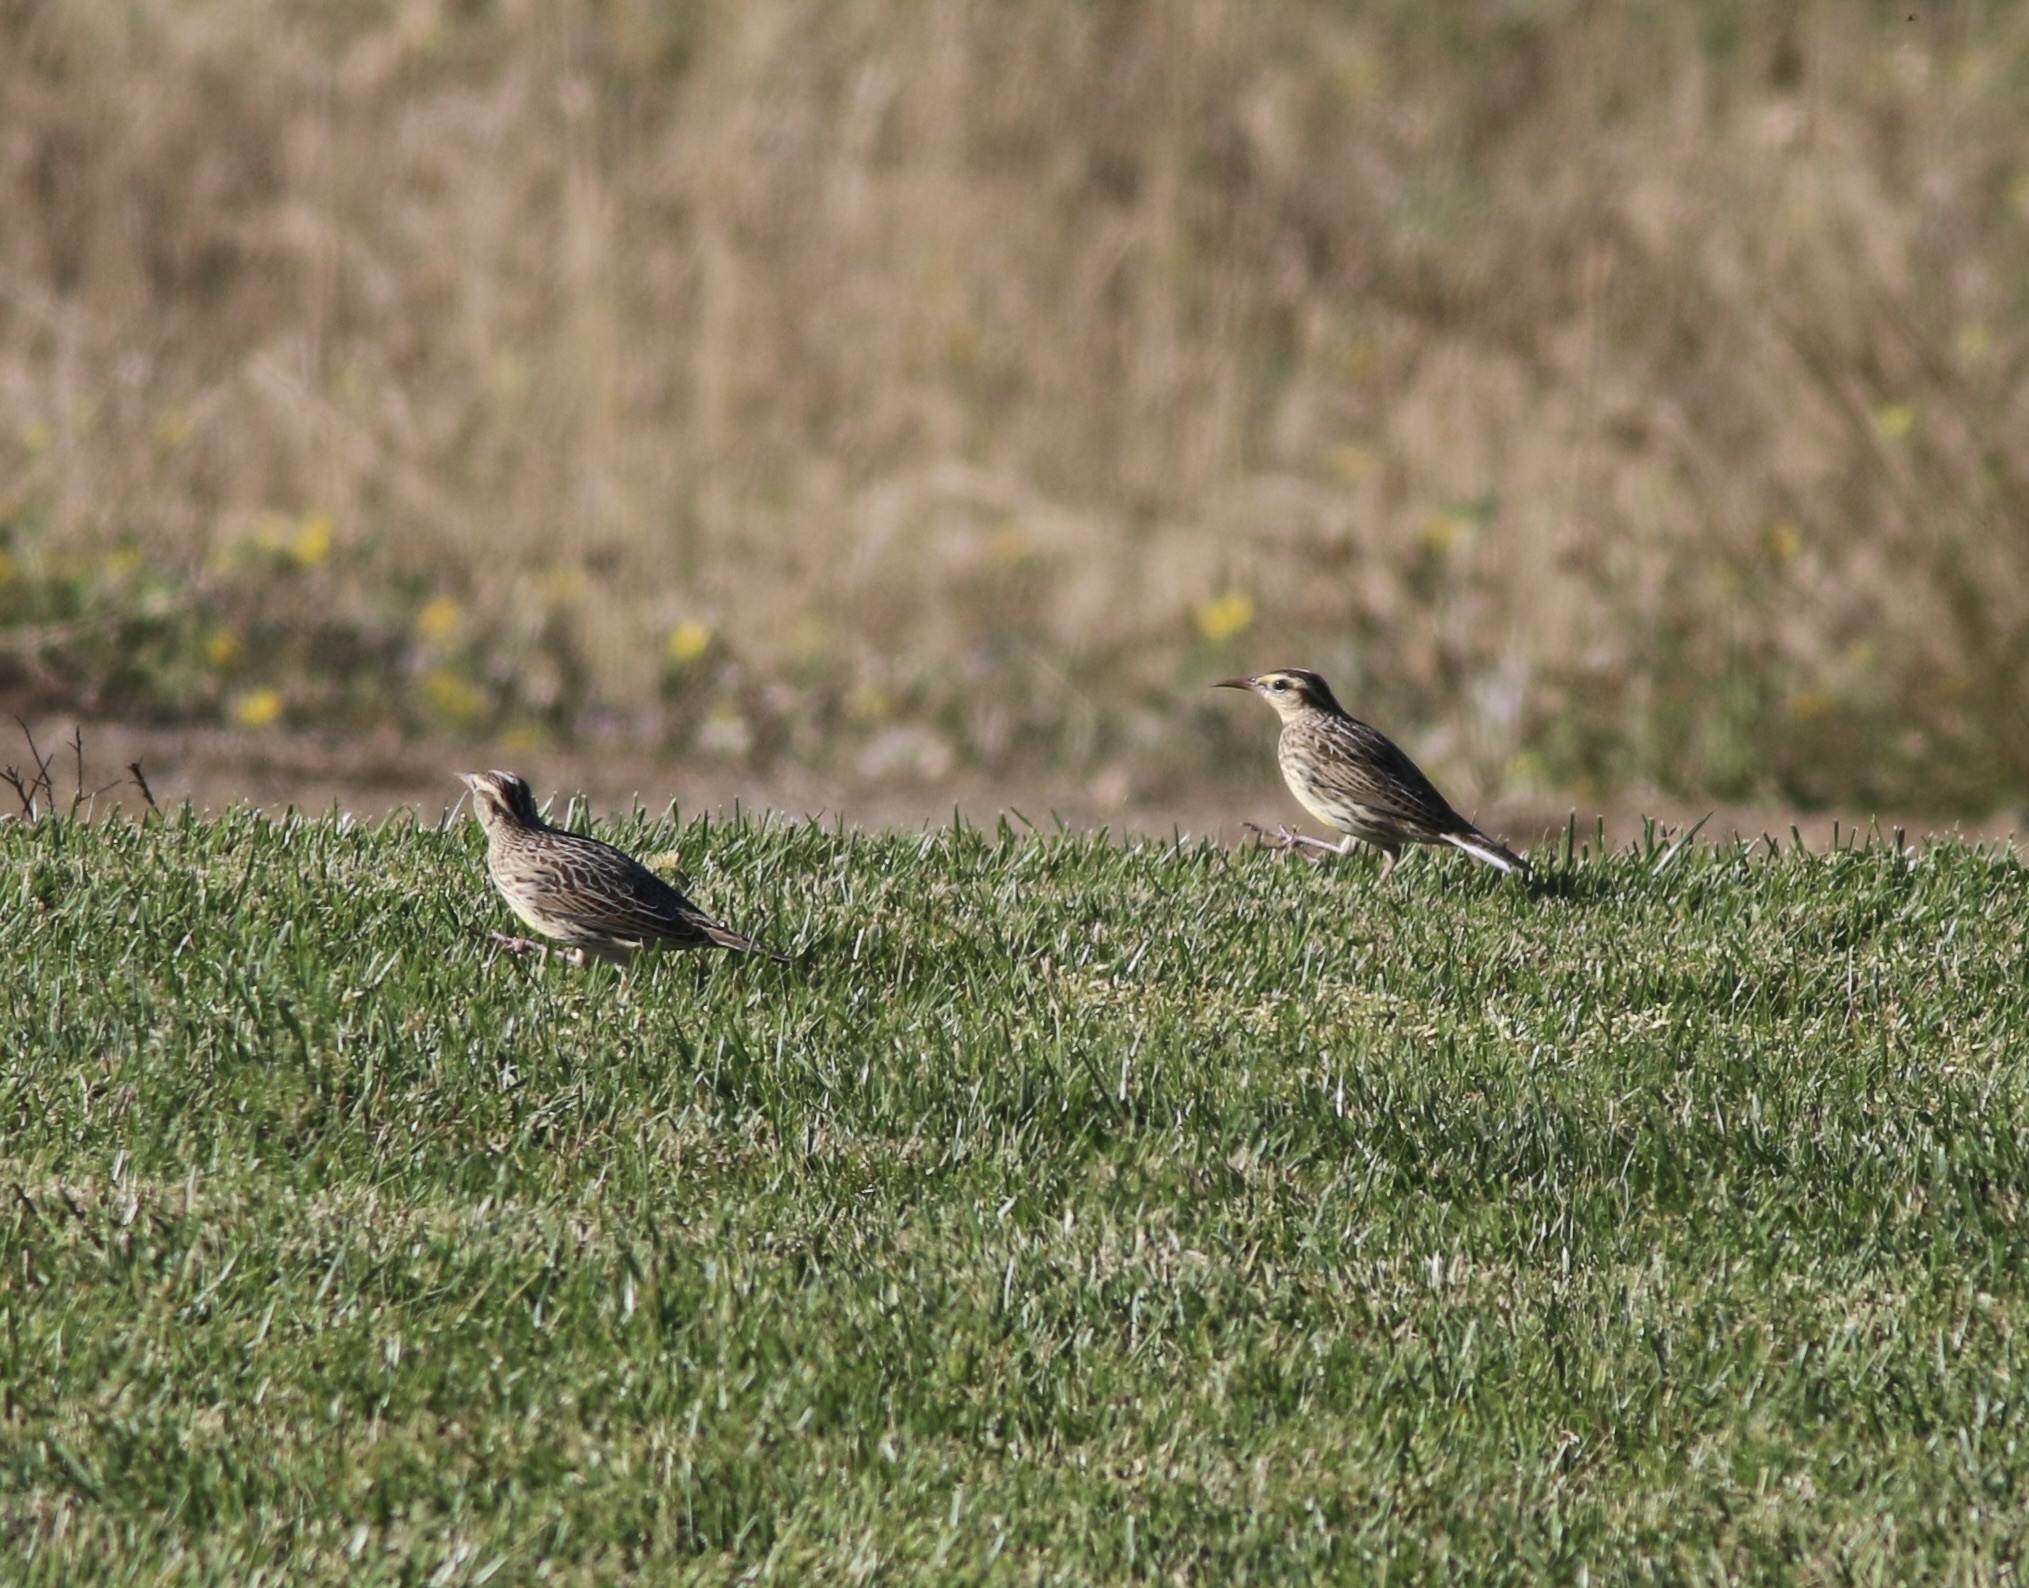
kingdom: Animalia
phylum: Chordata
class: Aves
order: Passeriformes
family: Icteridae
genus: Sturnella
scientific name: Sturnella neglecta
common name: Western meadowlark
